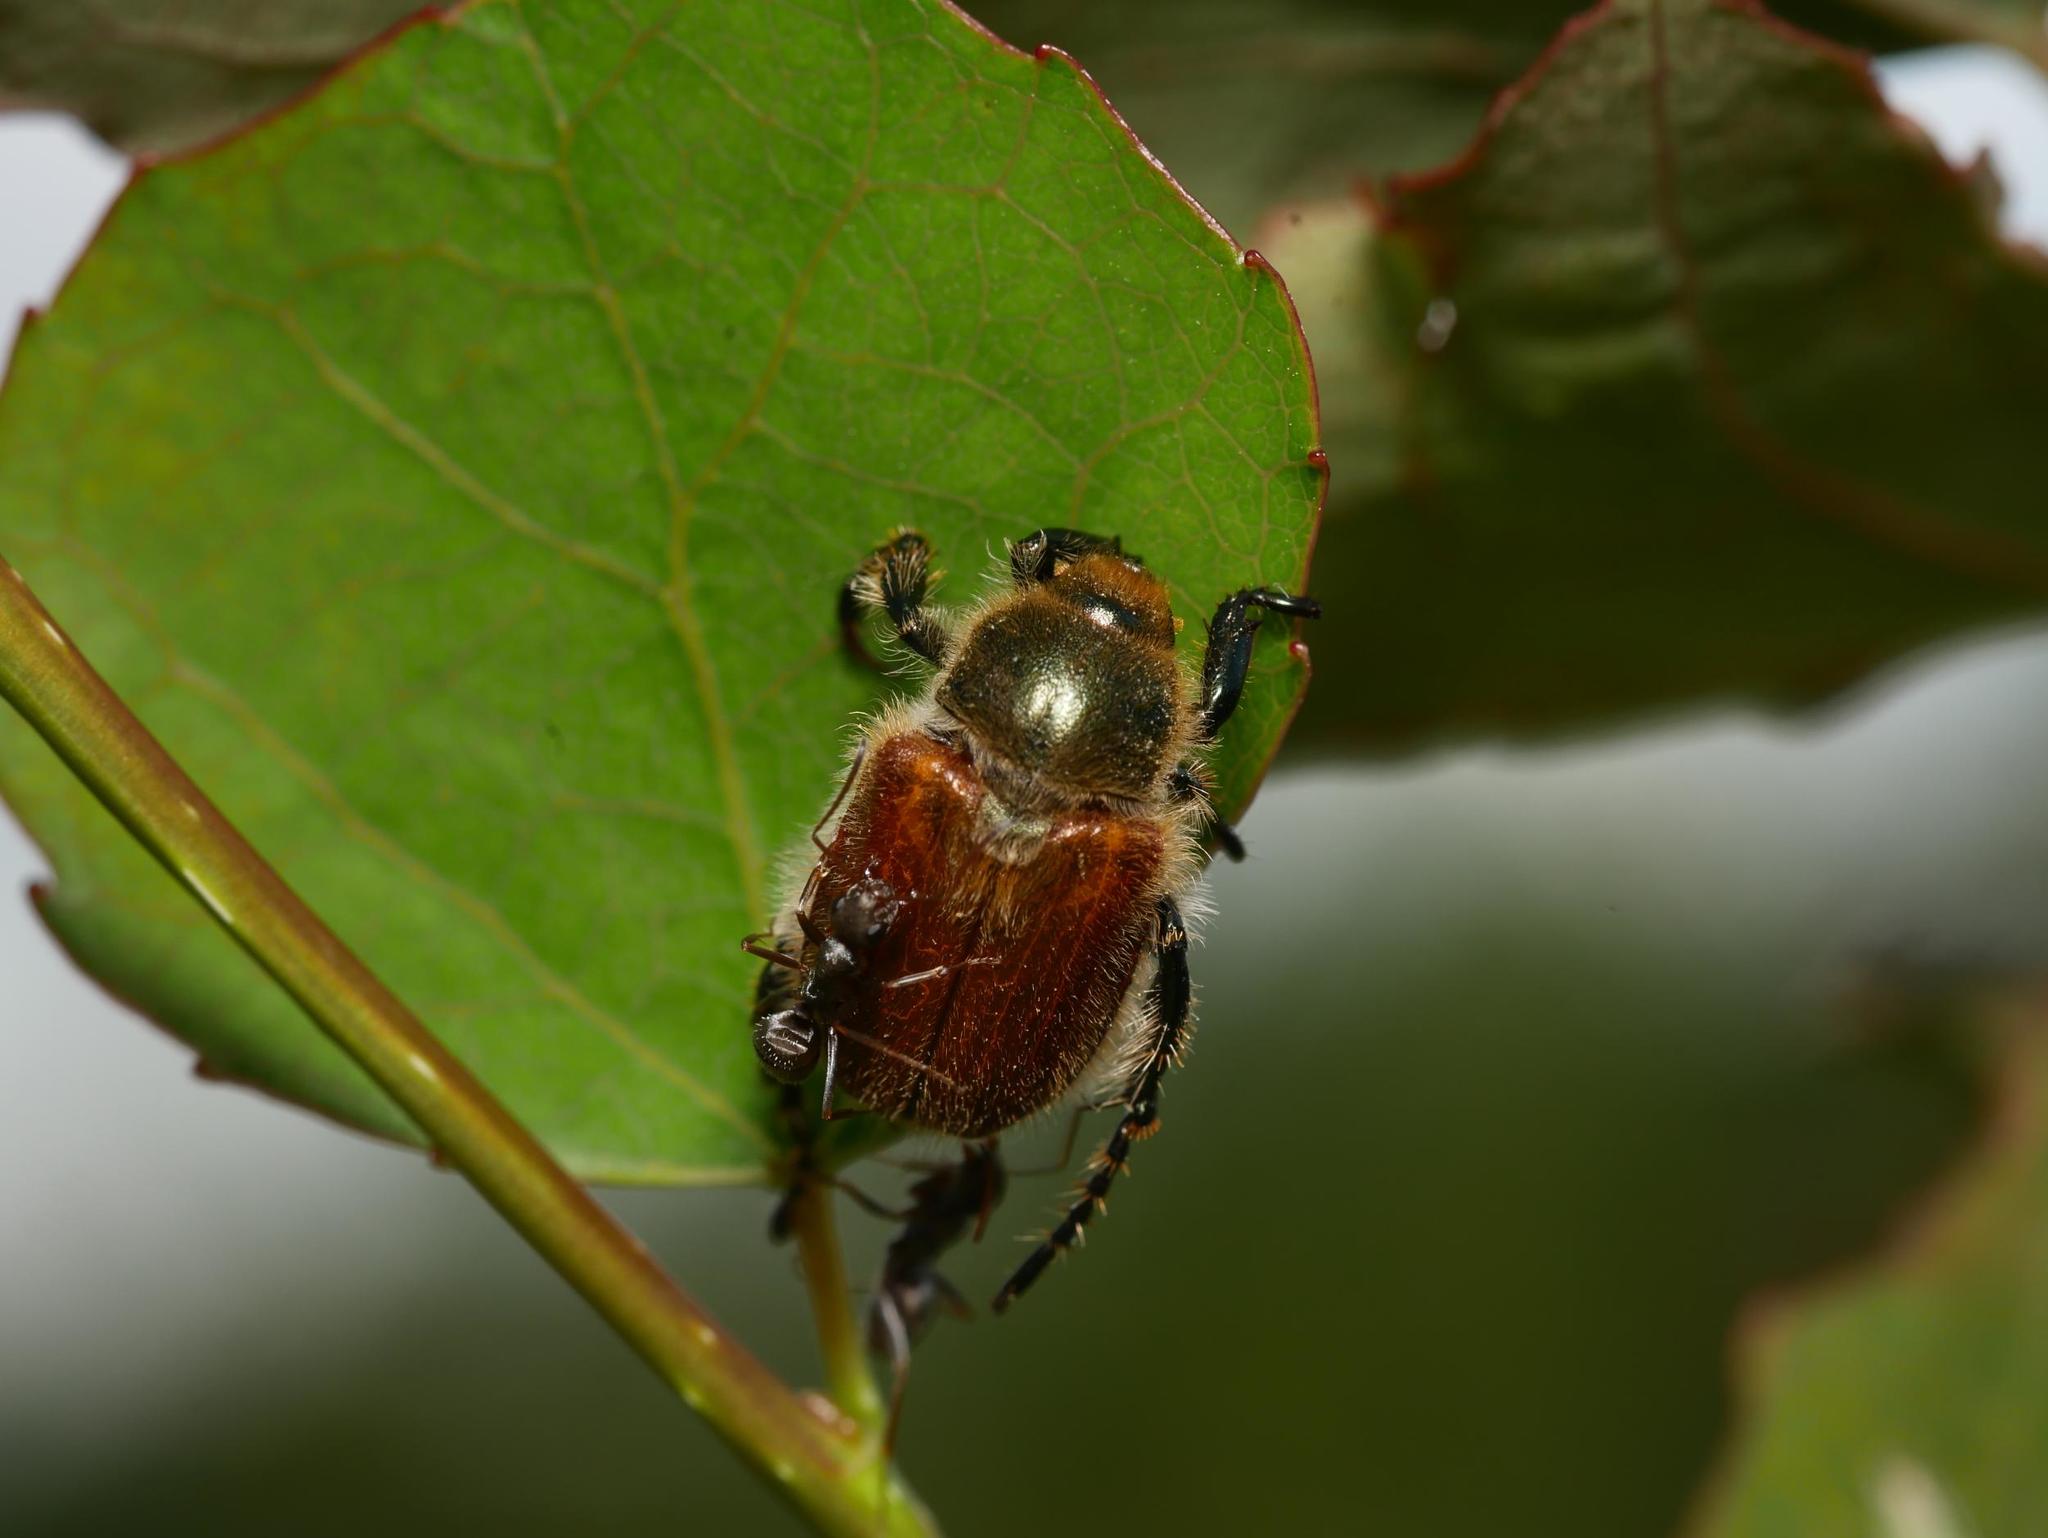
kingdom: Animalia
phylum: Arthropoda
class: Insecta
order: Coleoptera
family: Scarabaeidae
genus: Chaetopteroplia
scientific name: Chaetopteroplia segetum
